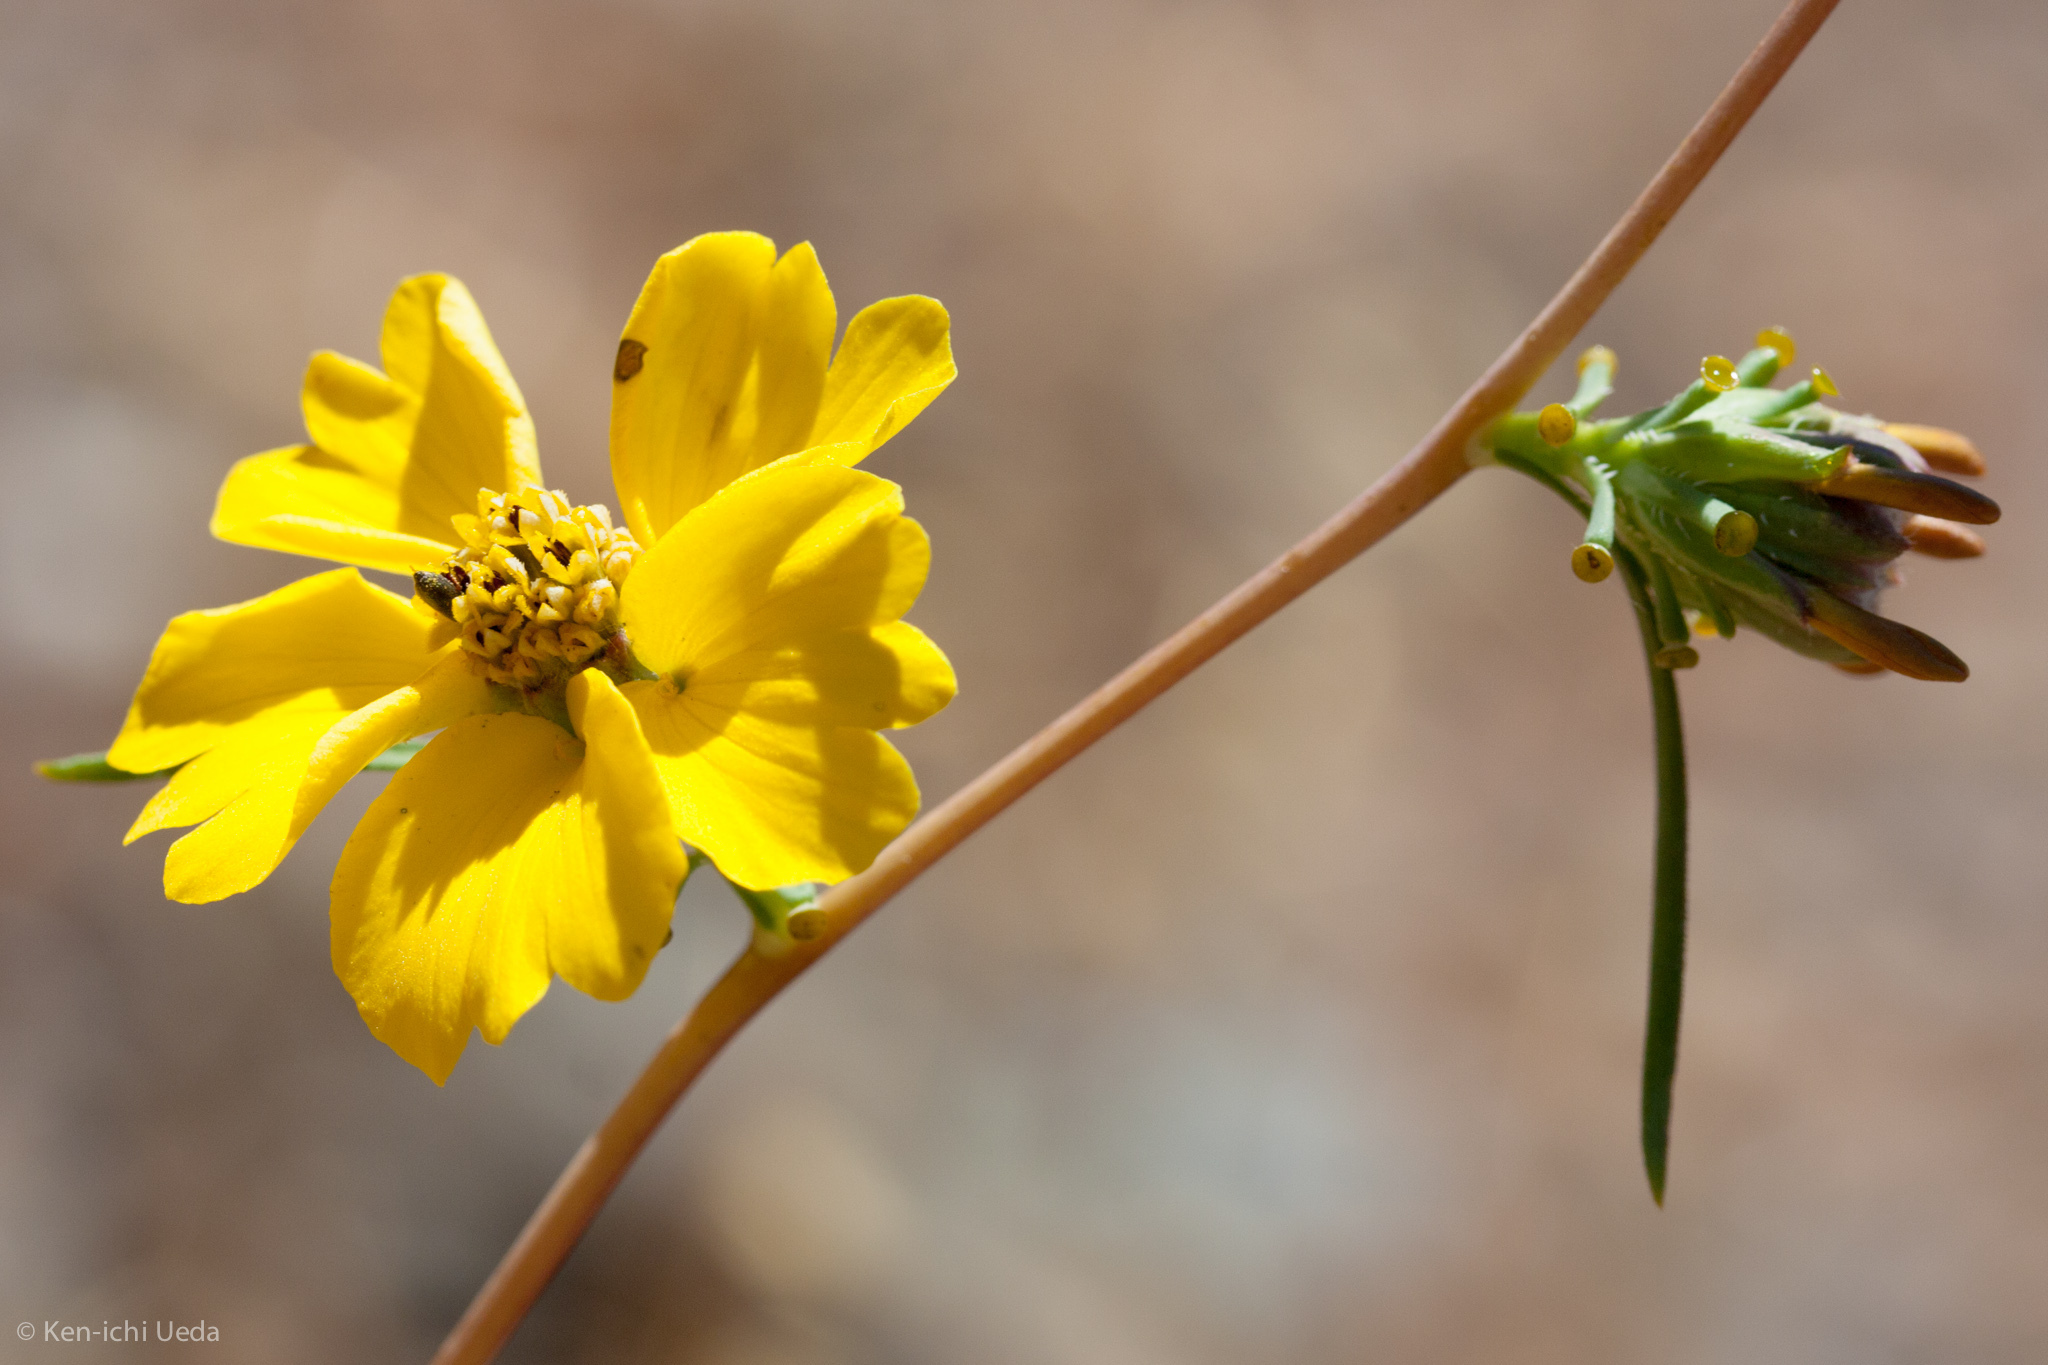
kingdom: Plantae
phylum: Tracheophyta
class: Magnoliopsida
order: Asterales
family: Asteraceae
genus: Calycadenia
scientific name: Calycadenia truncata
